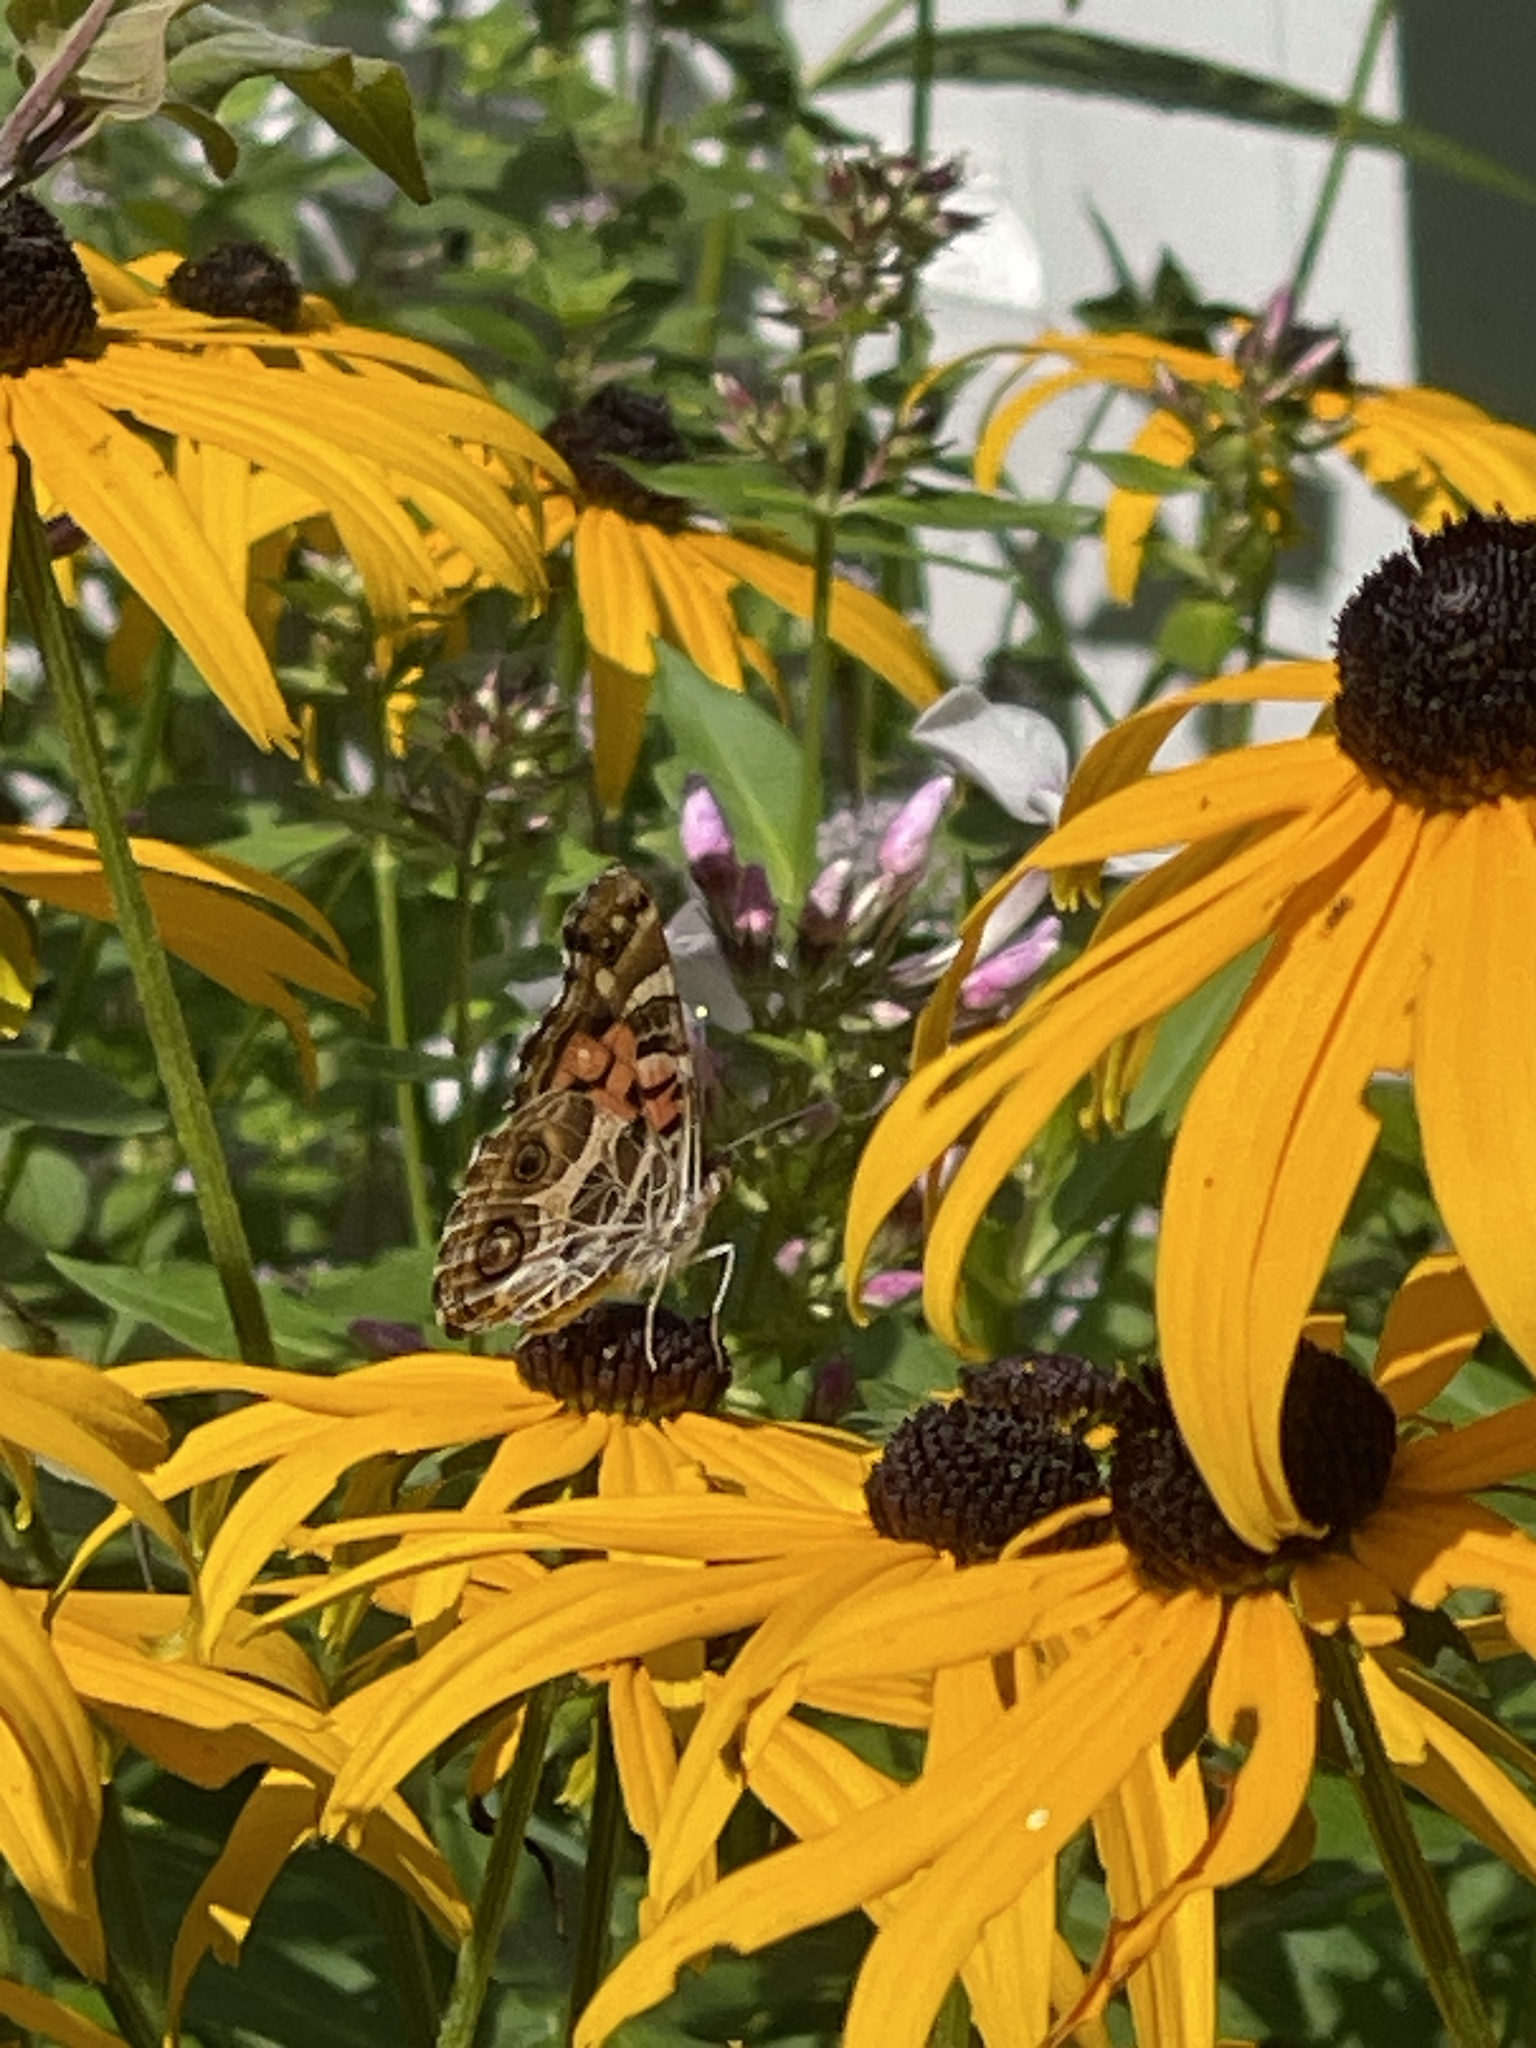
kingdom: Animalia
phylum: Arthropoda
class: Insecta
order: Lepidoptera
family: Nymphalidae
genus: Vanessa
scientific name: Vanessa virginiensis
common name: American lady
